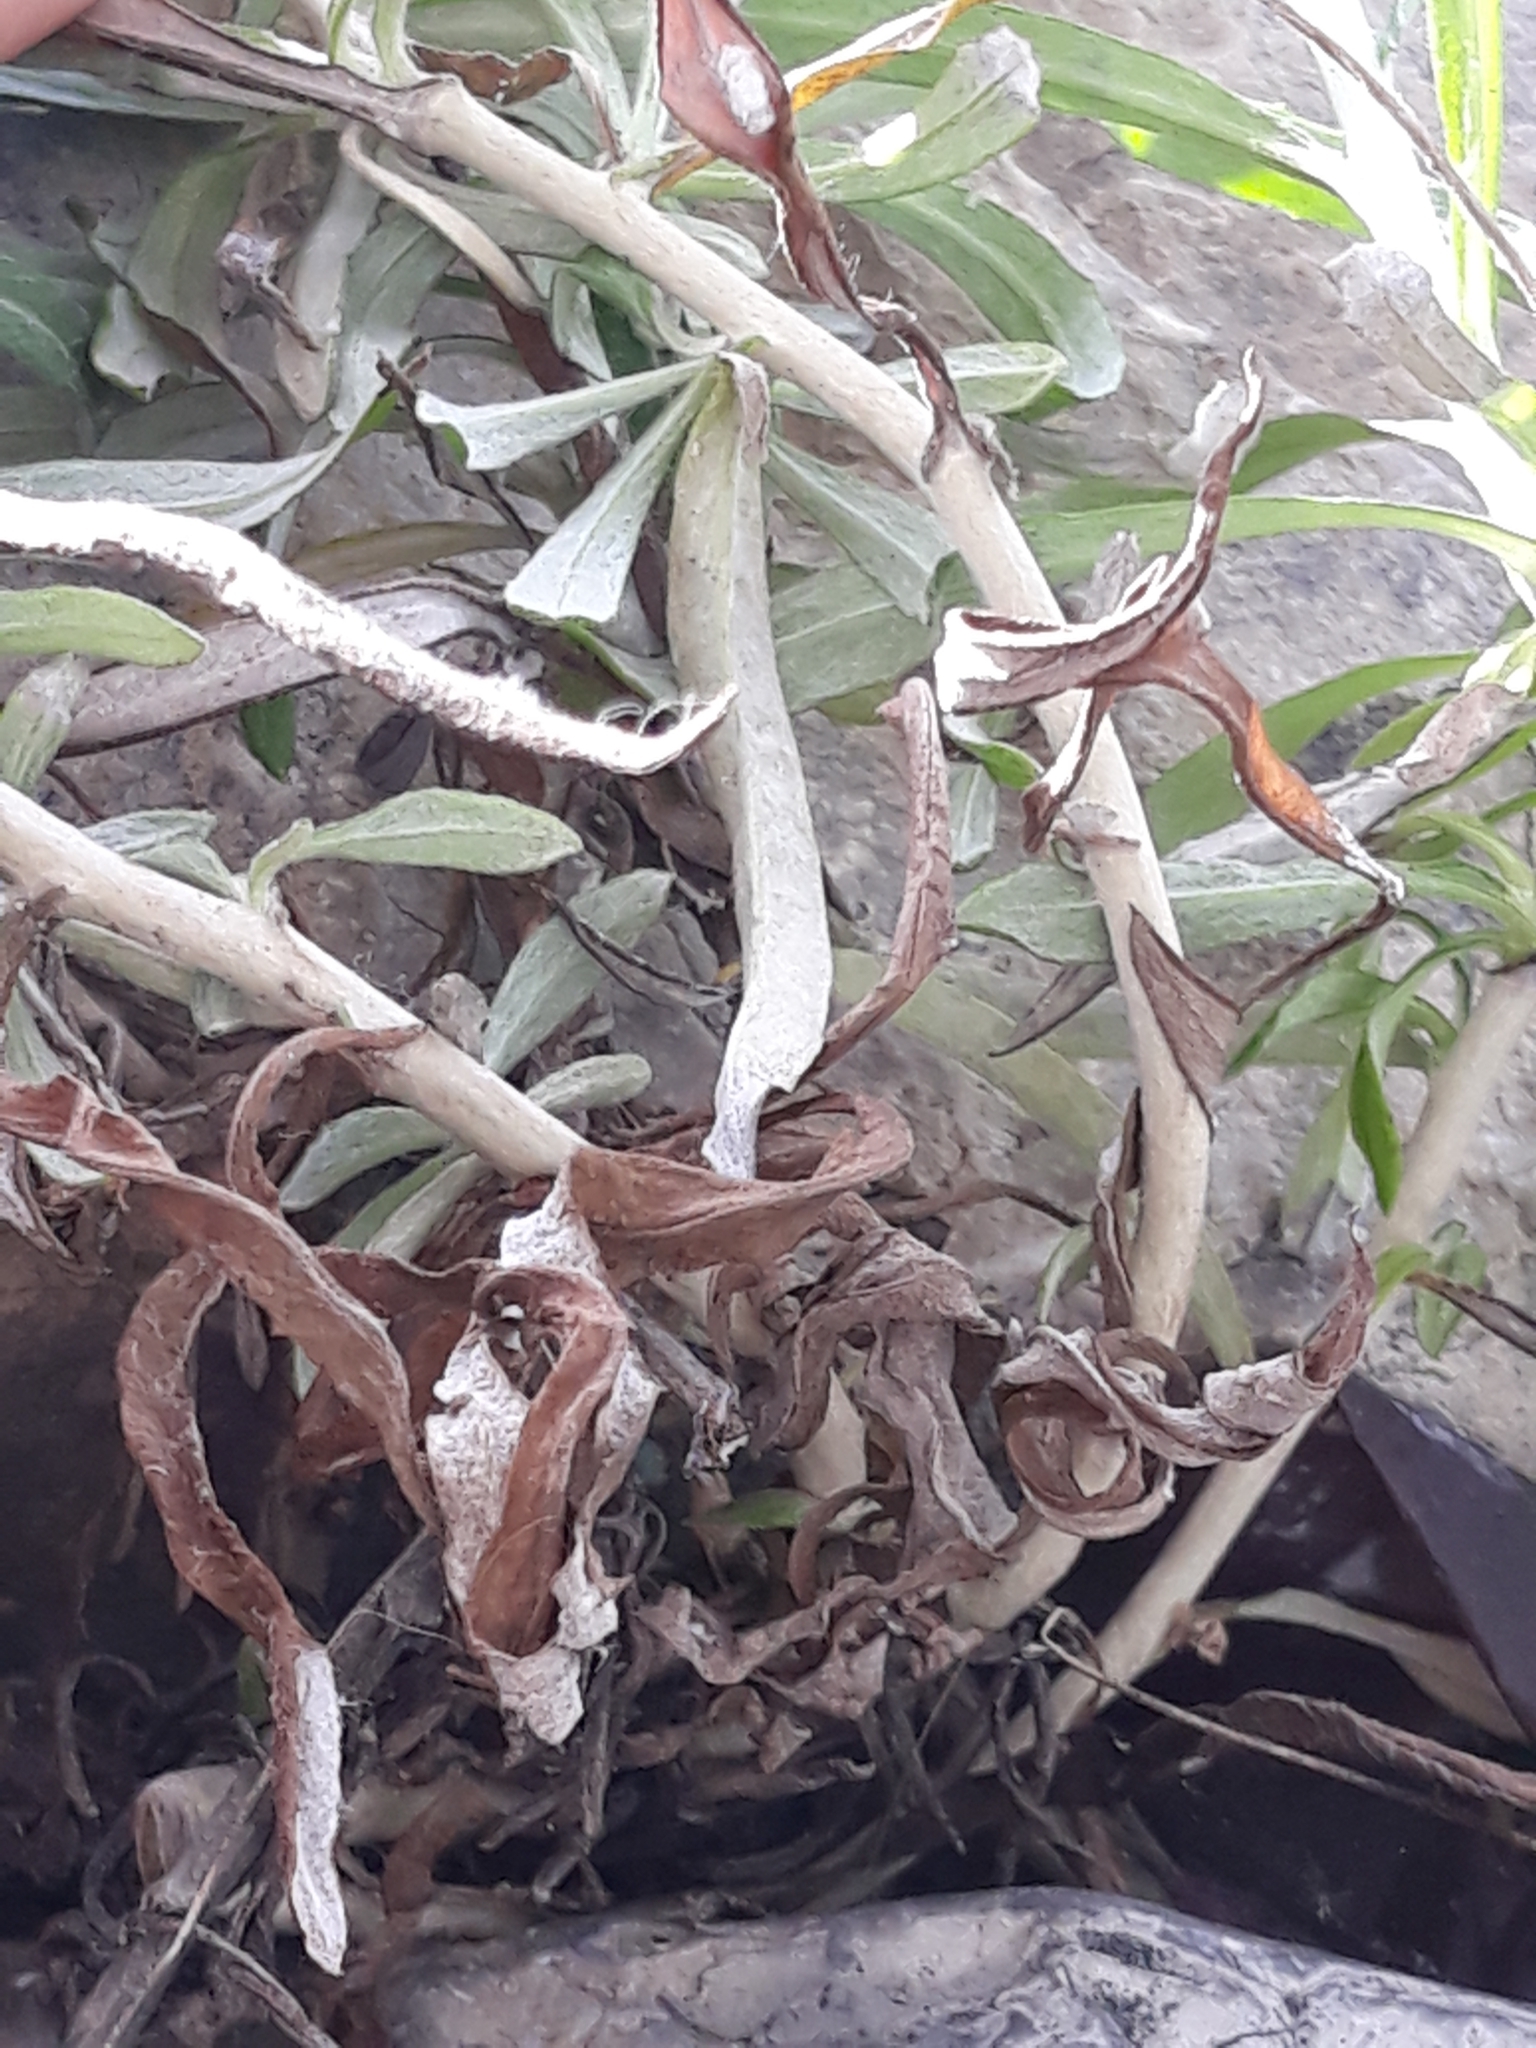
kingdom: Plantae
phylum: Tracheophyta
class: Magnoliopsida
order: Asterales
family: Asteraceae
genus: Phagnalon
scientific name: Phagnalon saxatile
